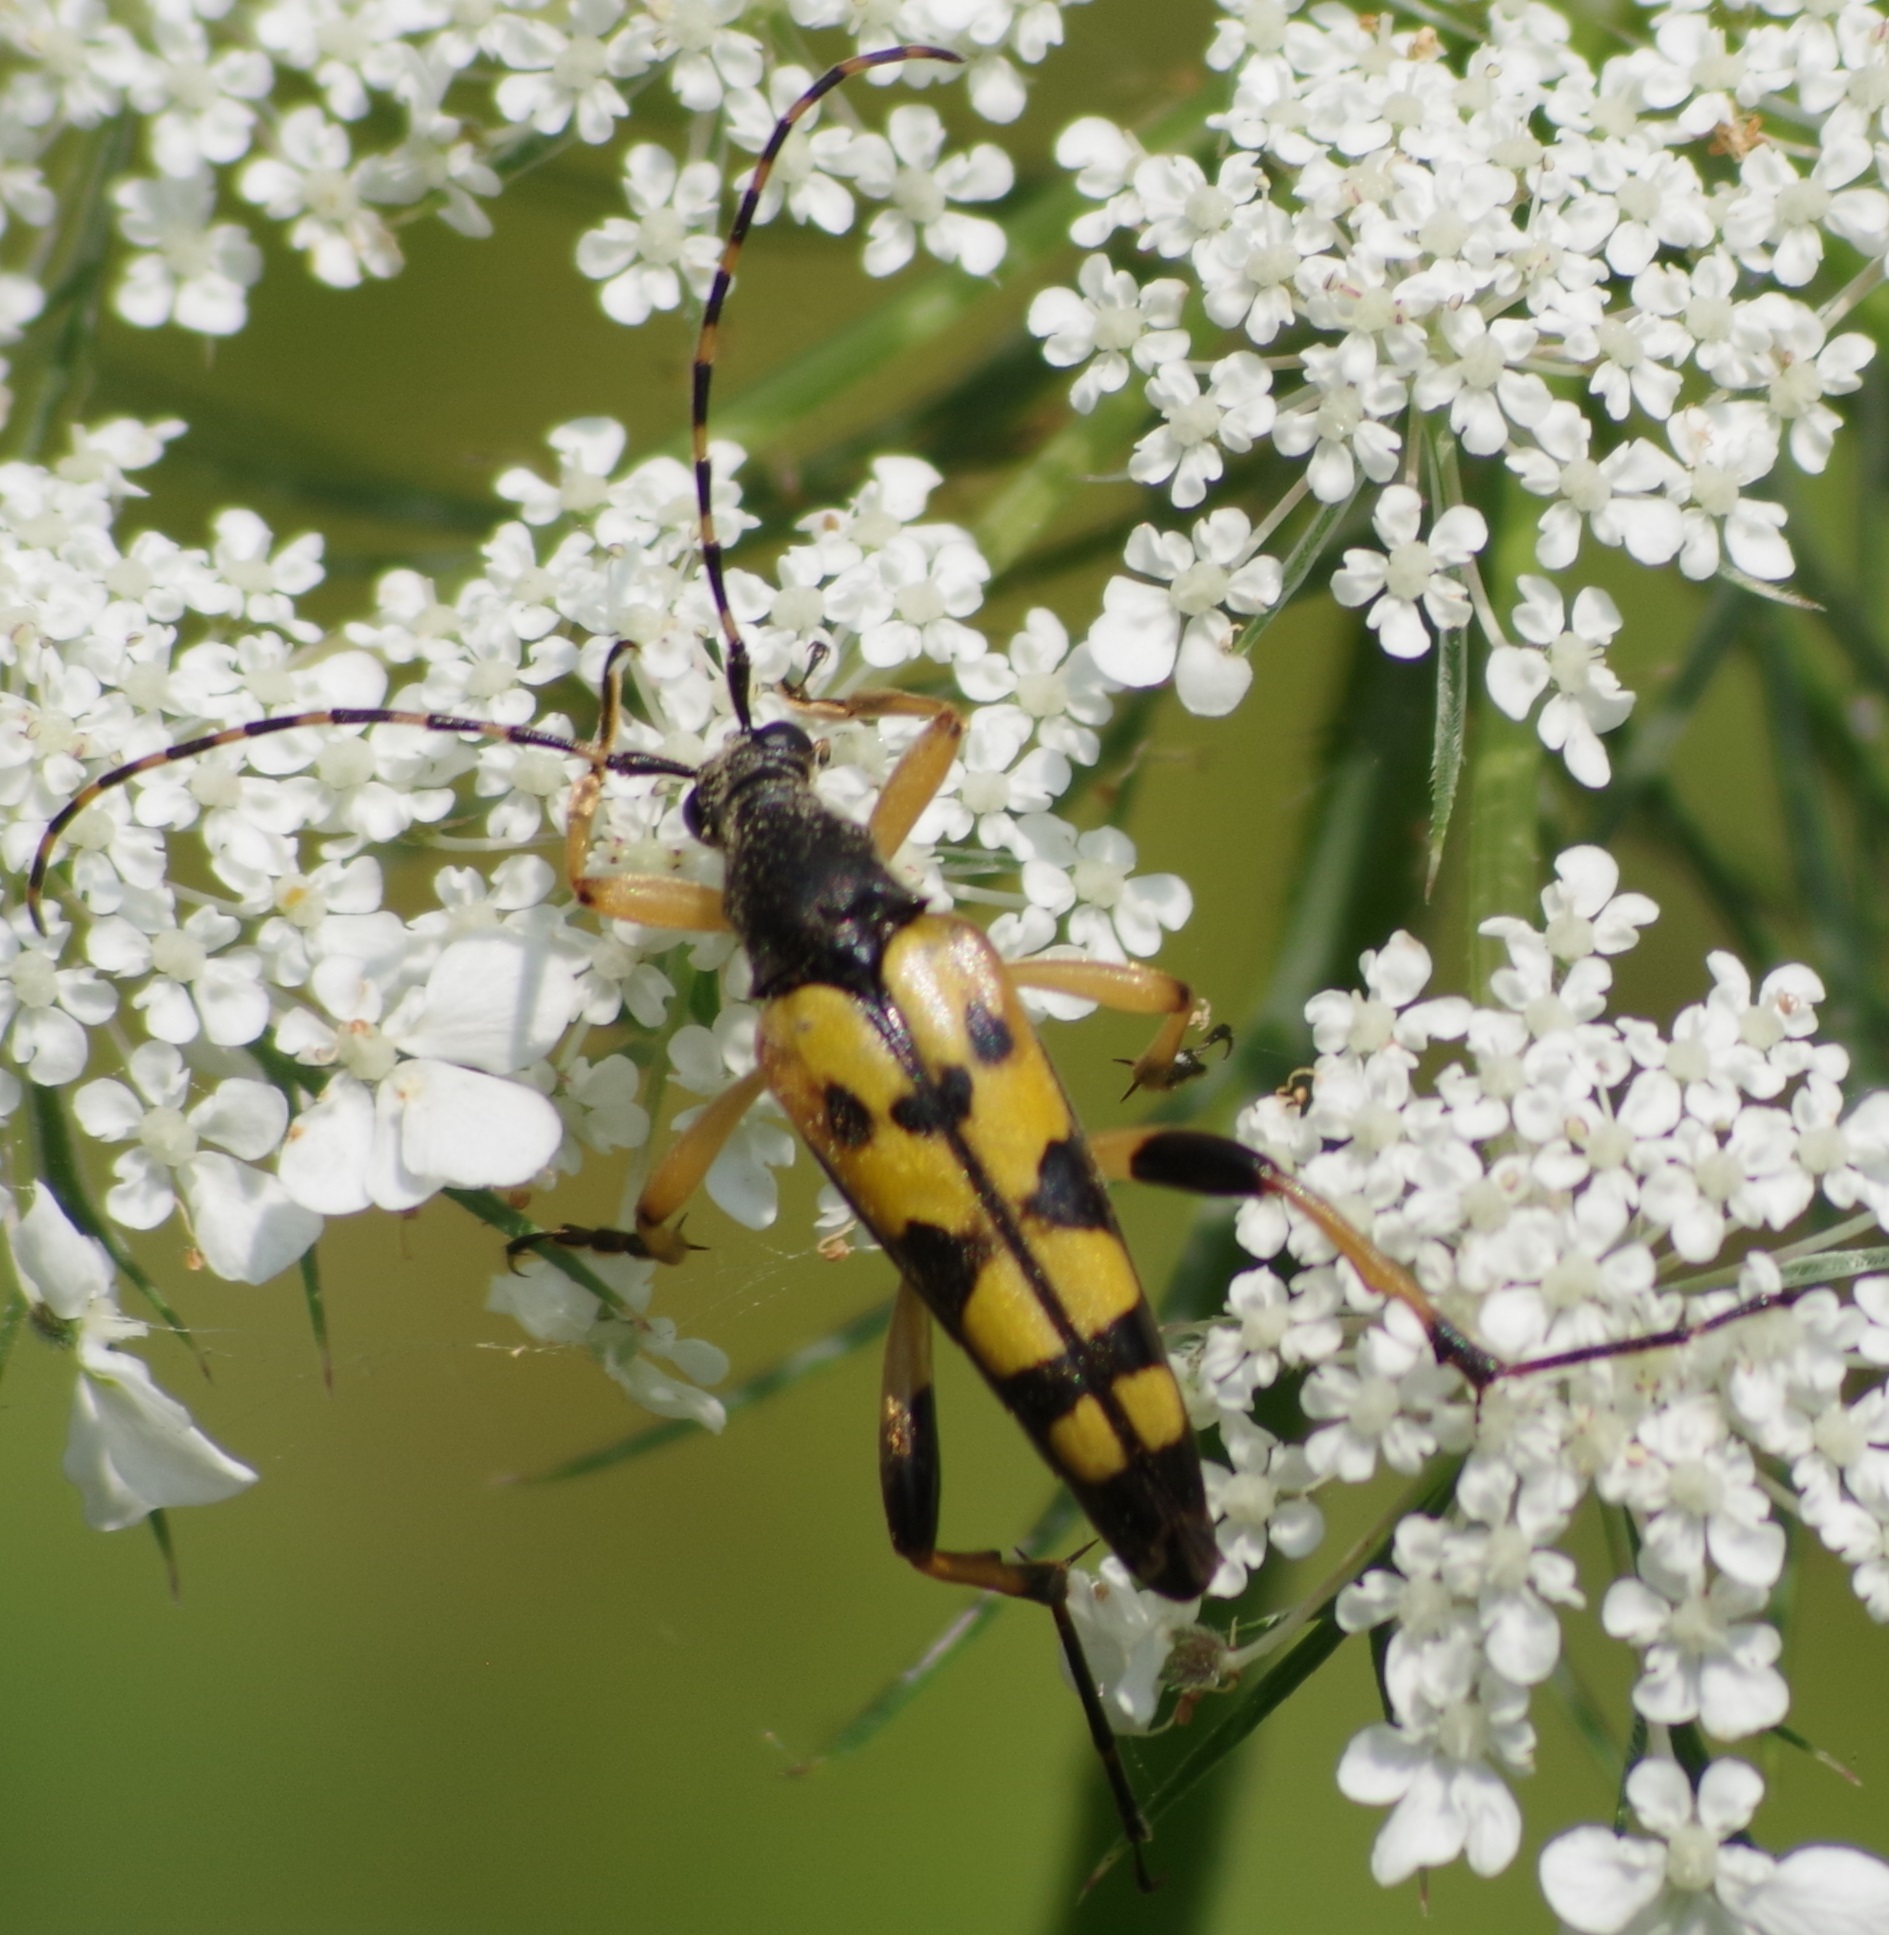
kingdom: Animalia
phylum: Arthropoda
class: Insecta
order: Coleoptera
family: Cerambycidae
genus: Rutpela
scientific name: Rutpela maculata
